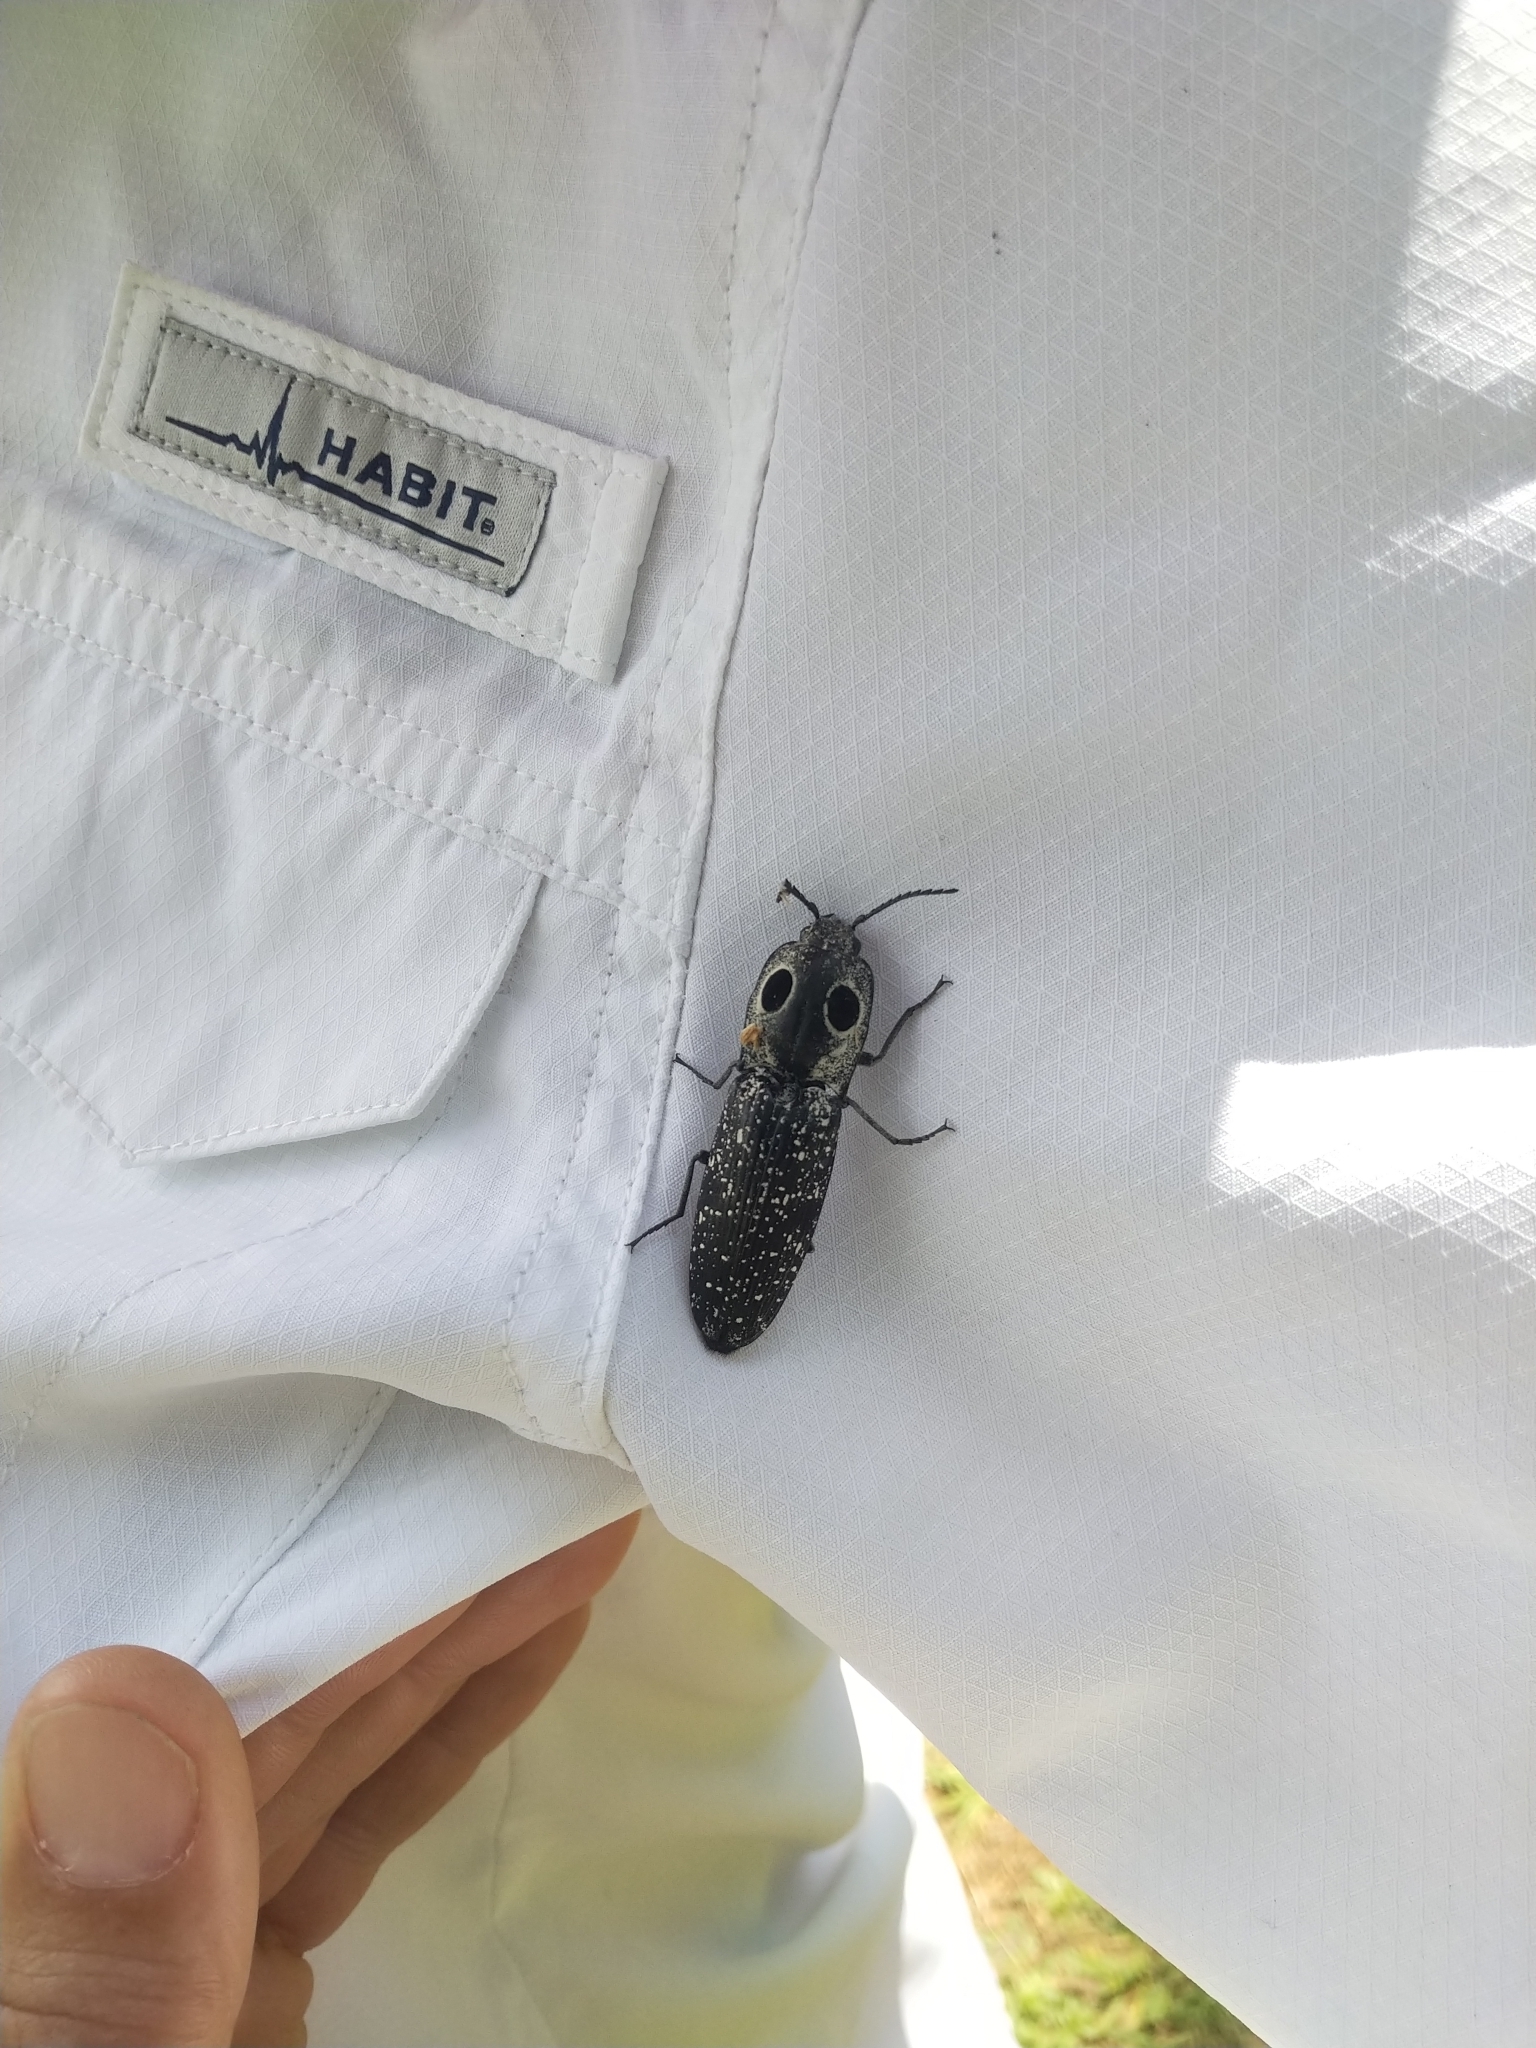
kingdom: Animalia
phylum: Arthropoda
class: Insecta
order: Coleoptera
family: Elateridae
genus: Alaus
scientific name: Alaus oculatus
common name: Eastern eyed click beetle
